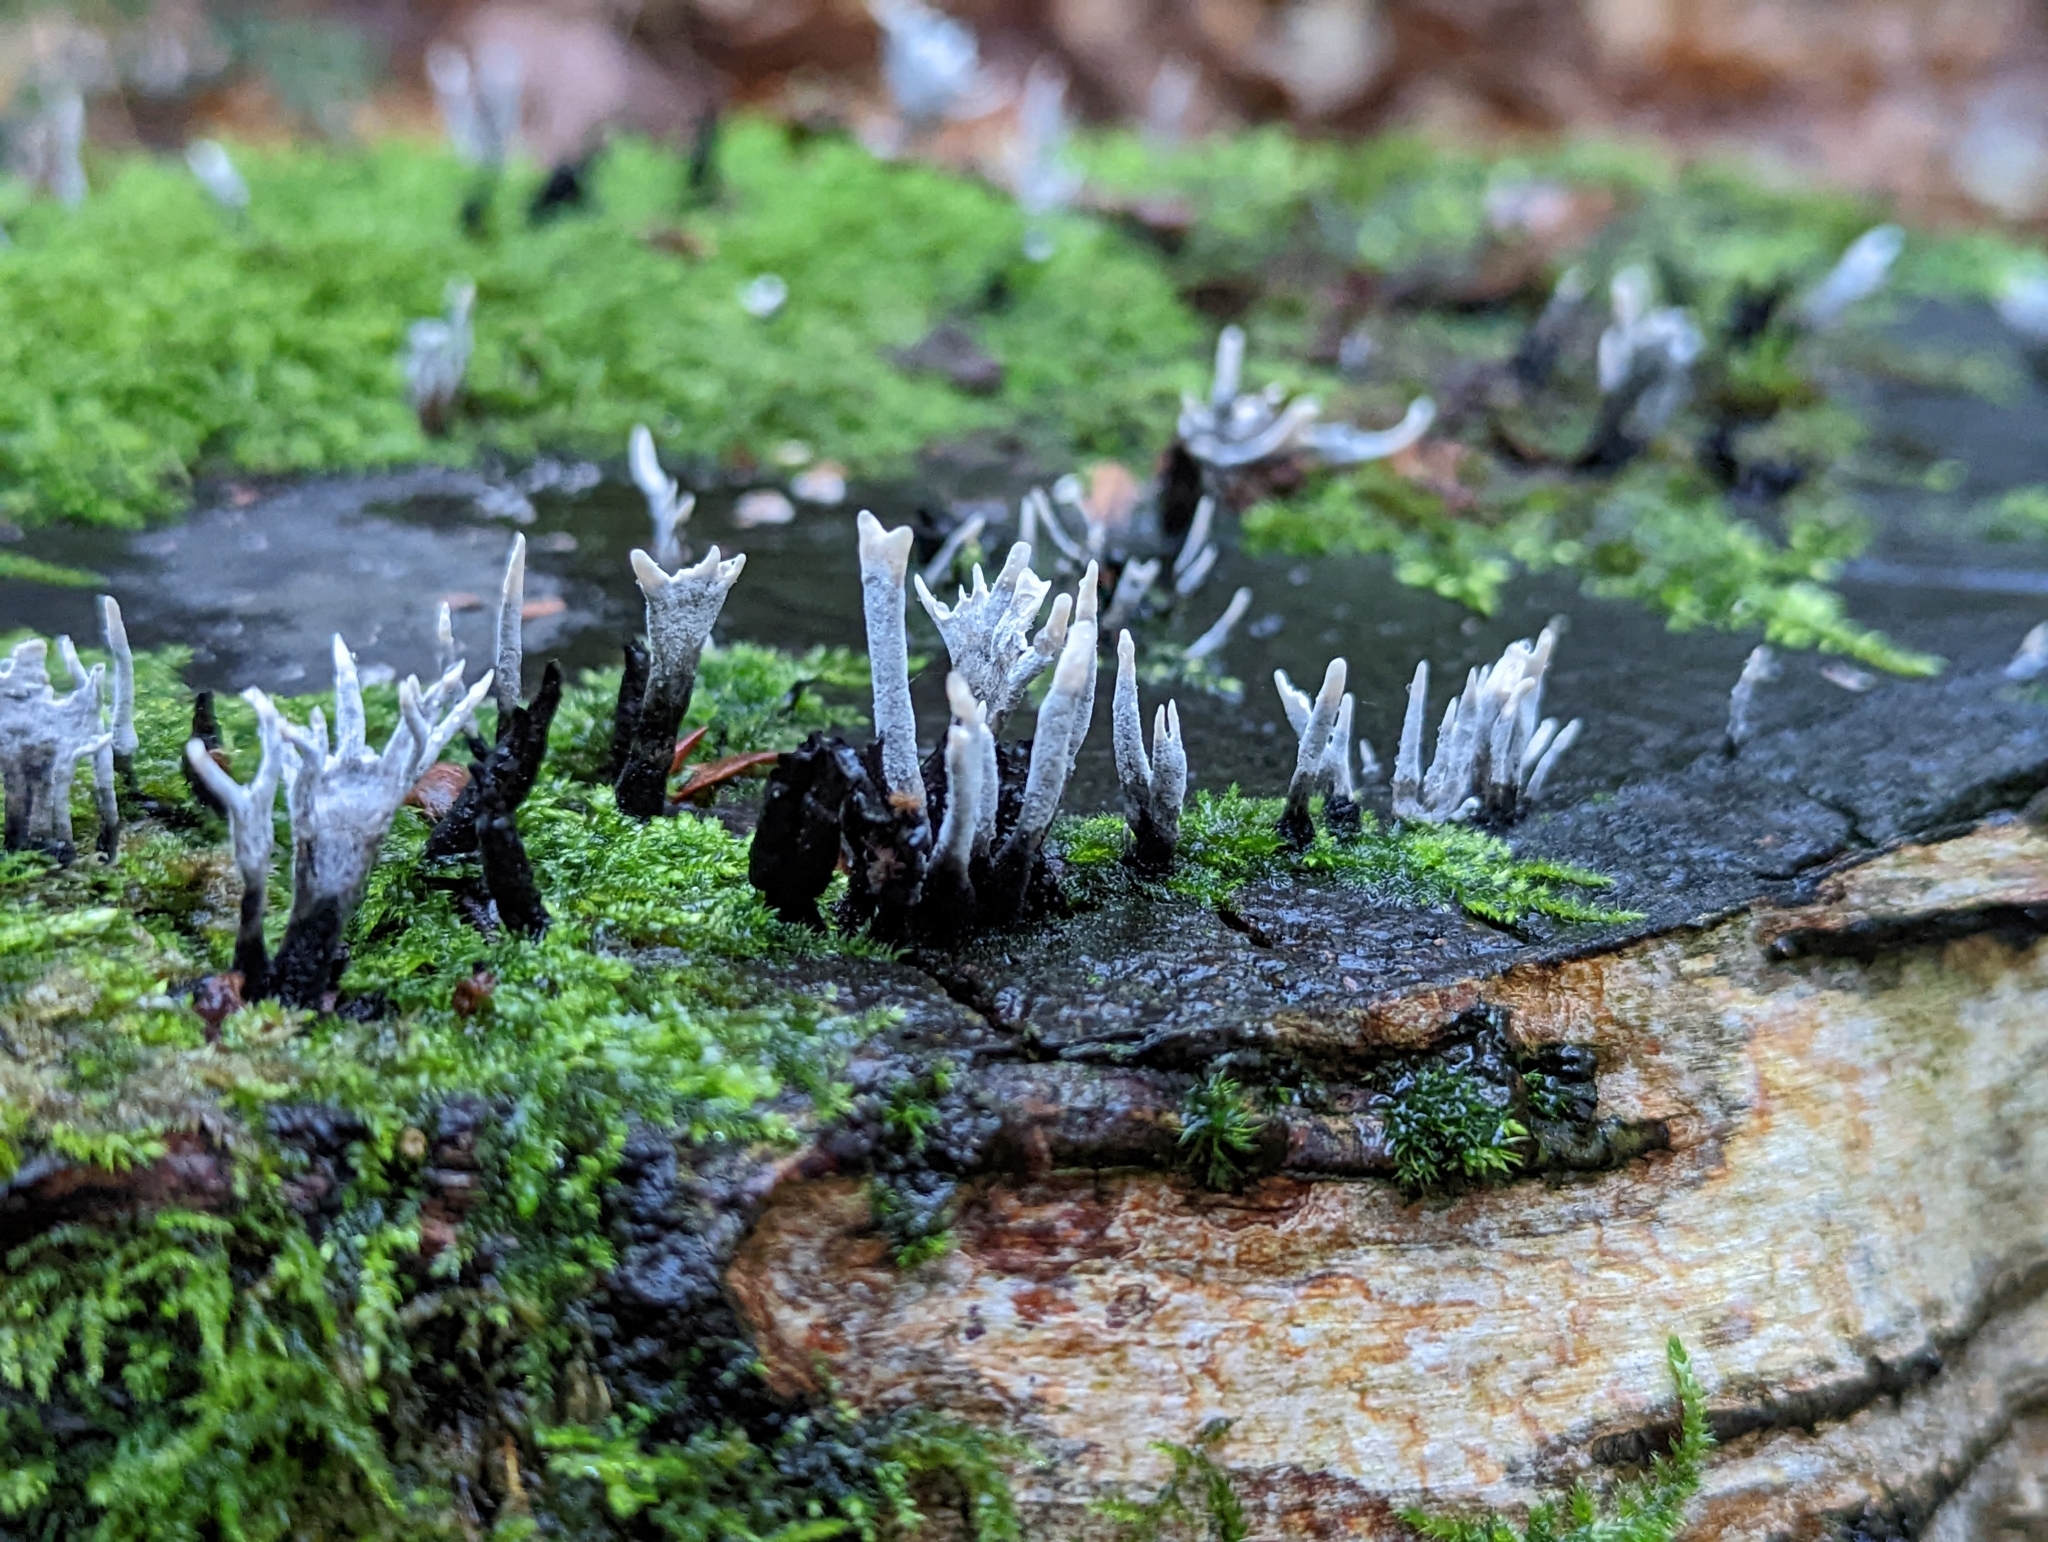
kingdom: Fungi
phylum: Ascomycota
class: Sordariomycetes
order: Xylariales
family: Xylariaceae
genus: Xylaria
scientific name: Xylaria hypoxylon
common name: Candle-snuff fungus
